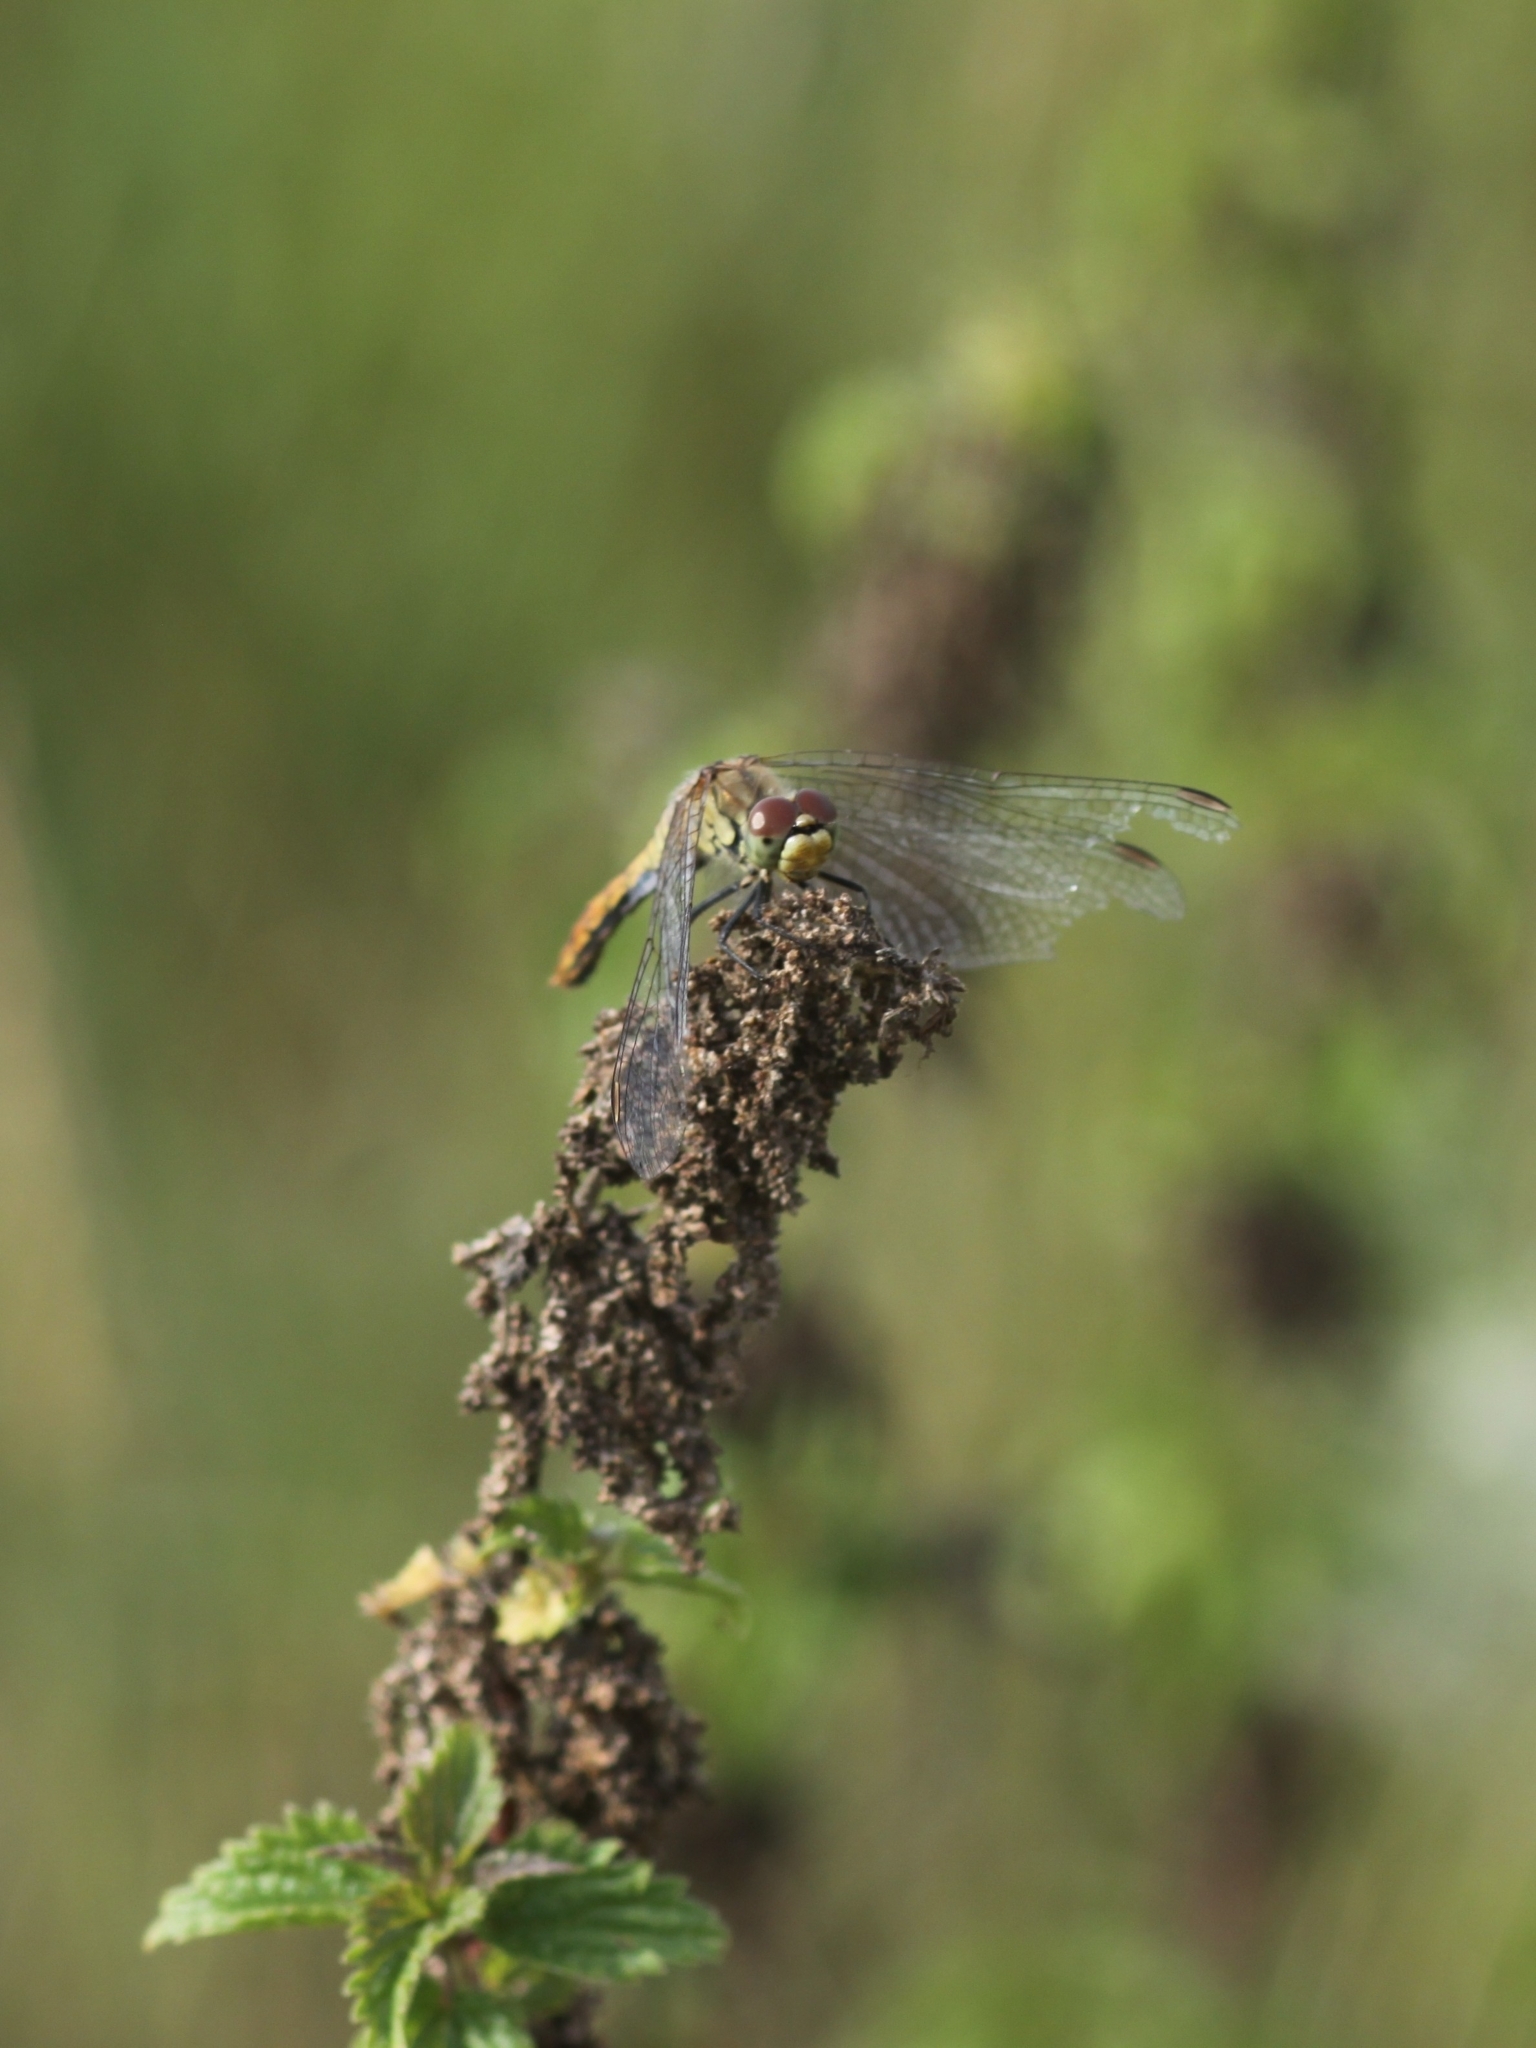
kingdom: Animalia
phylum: Arthropoda
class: Insecta
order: Odonata
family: Libellulidae
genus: Sympetrum
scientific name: Sympetrum sanguineum
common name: Ruddy darter
